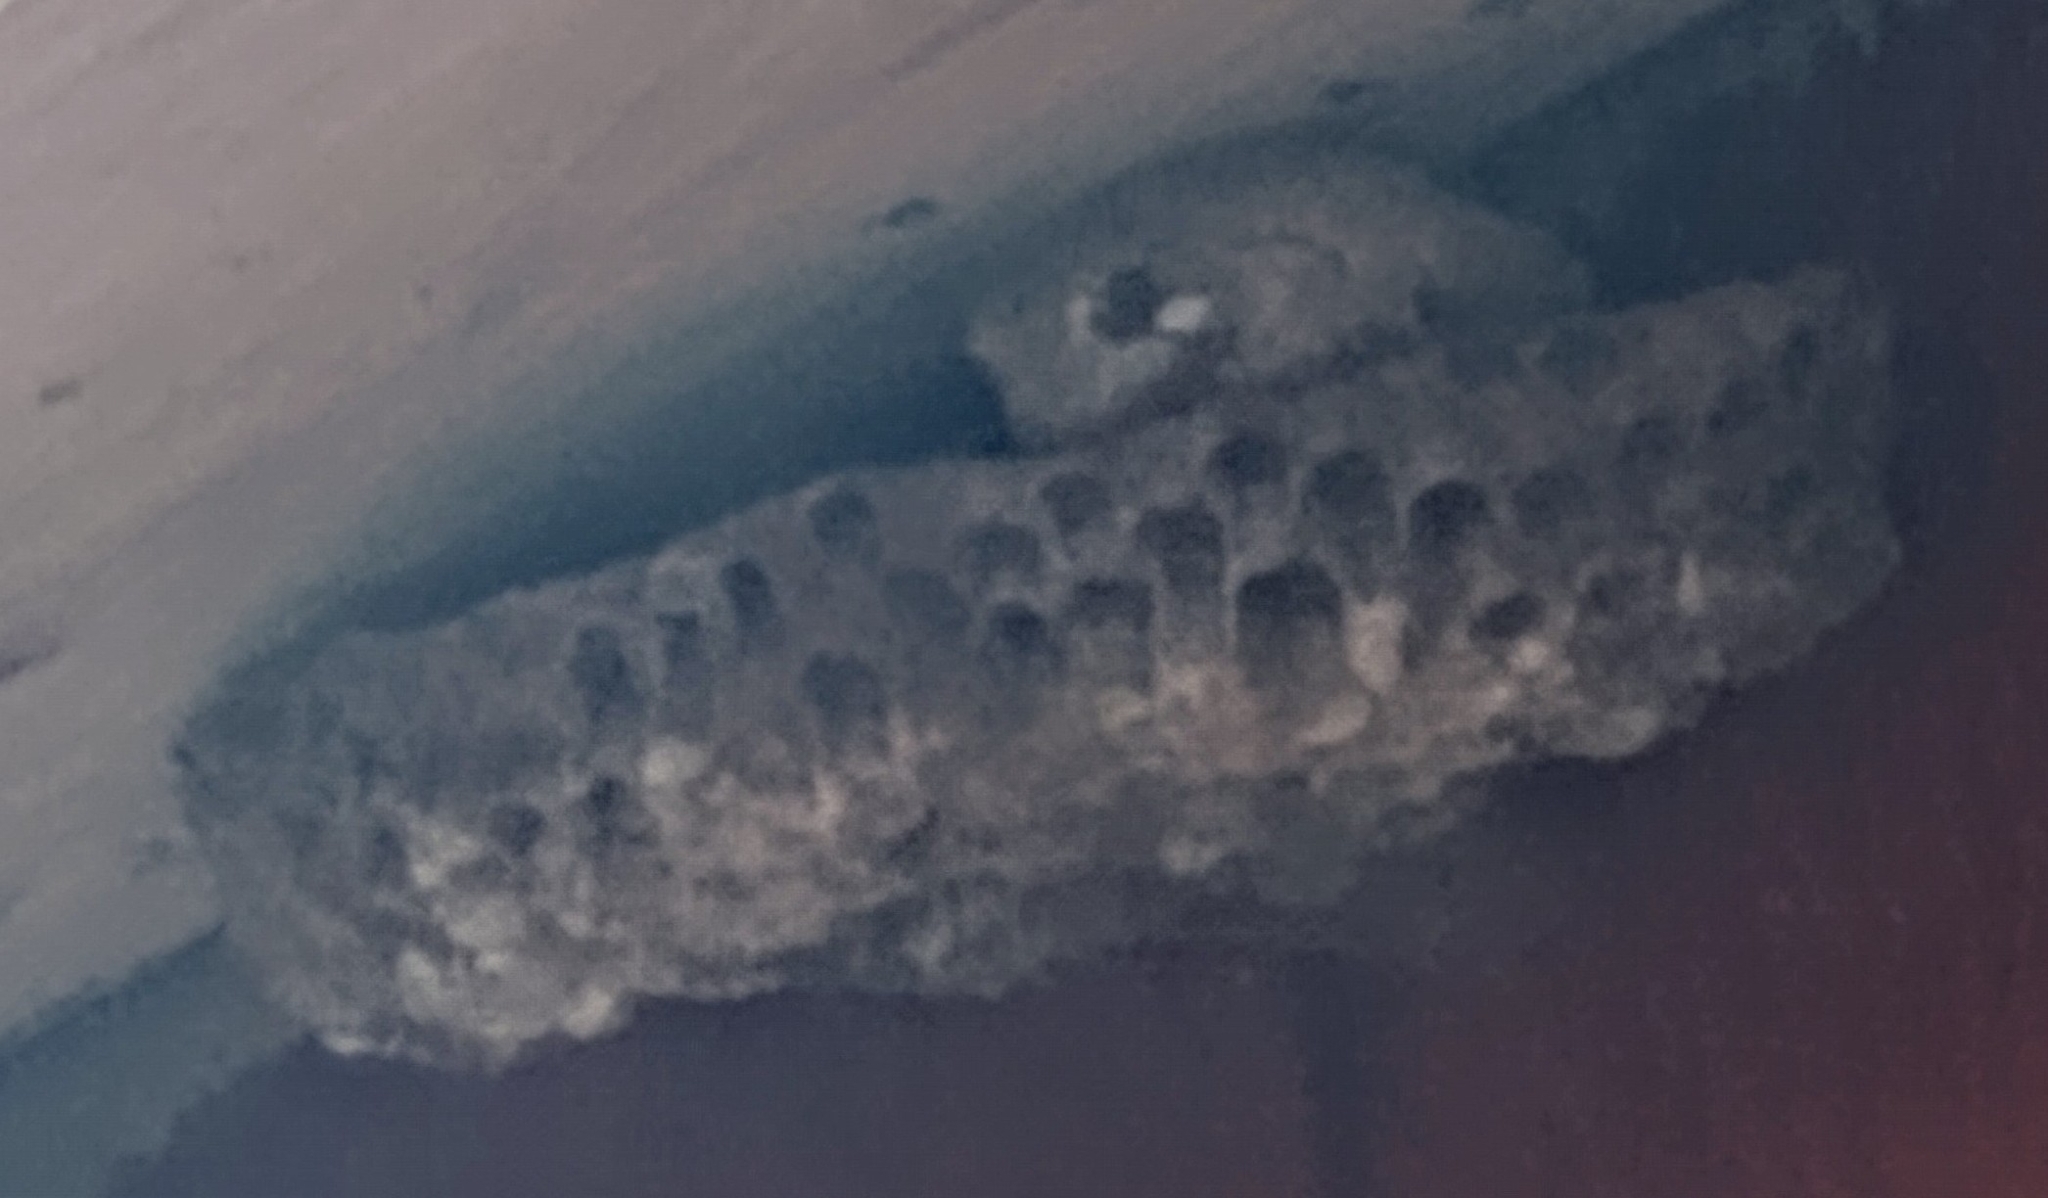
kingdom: Animalia
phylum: Chordata
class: Amphibia
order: Anura
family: Hylidae
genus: Dryophytes
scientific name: Dryophytes chrysoscelis
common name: Cope's gray treefrog
